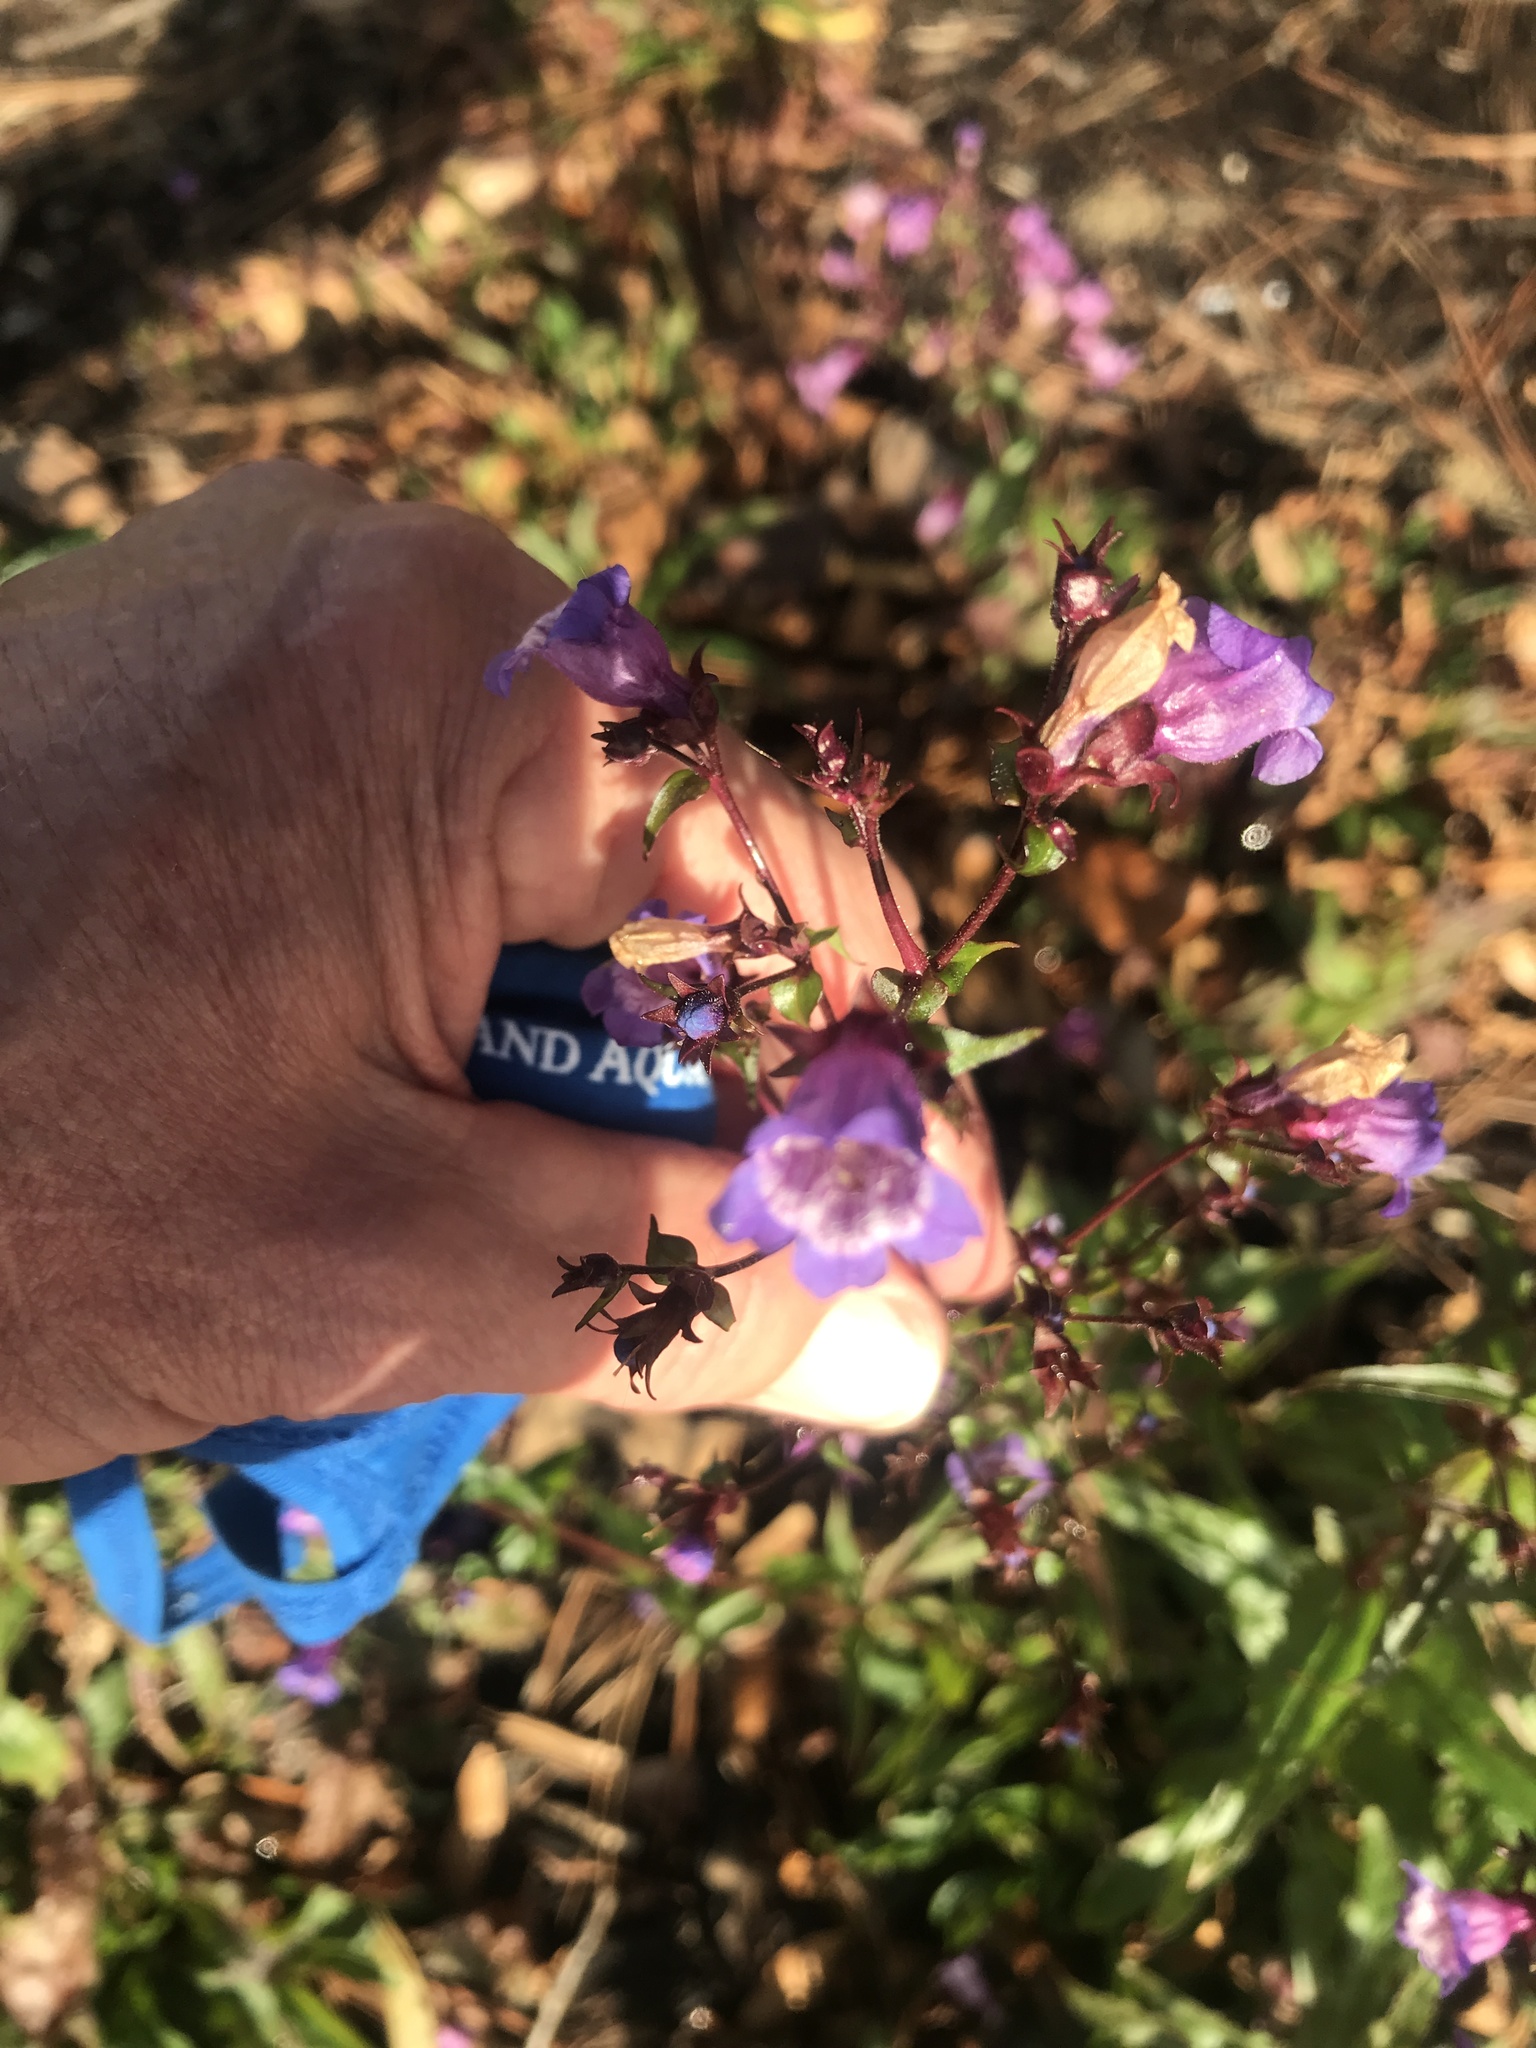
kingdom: Plantae
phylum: Tracheophyta
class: Magnoliopsida
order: Lamiales
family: Plantaginaceae
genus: Penstemon
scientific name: Penstemon tenuis
